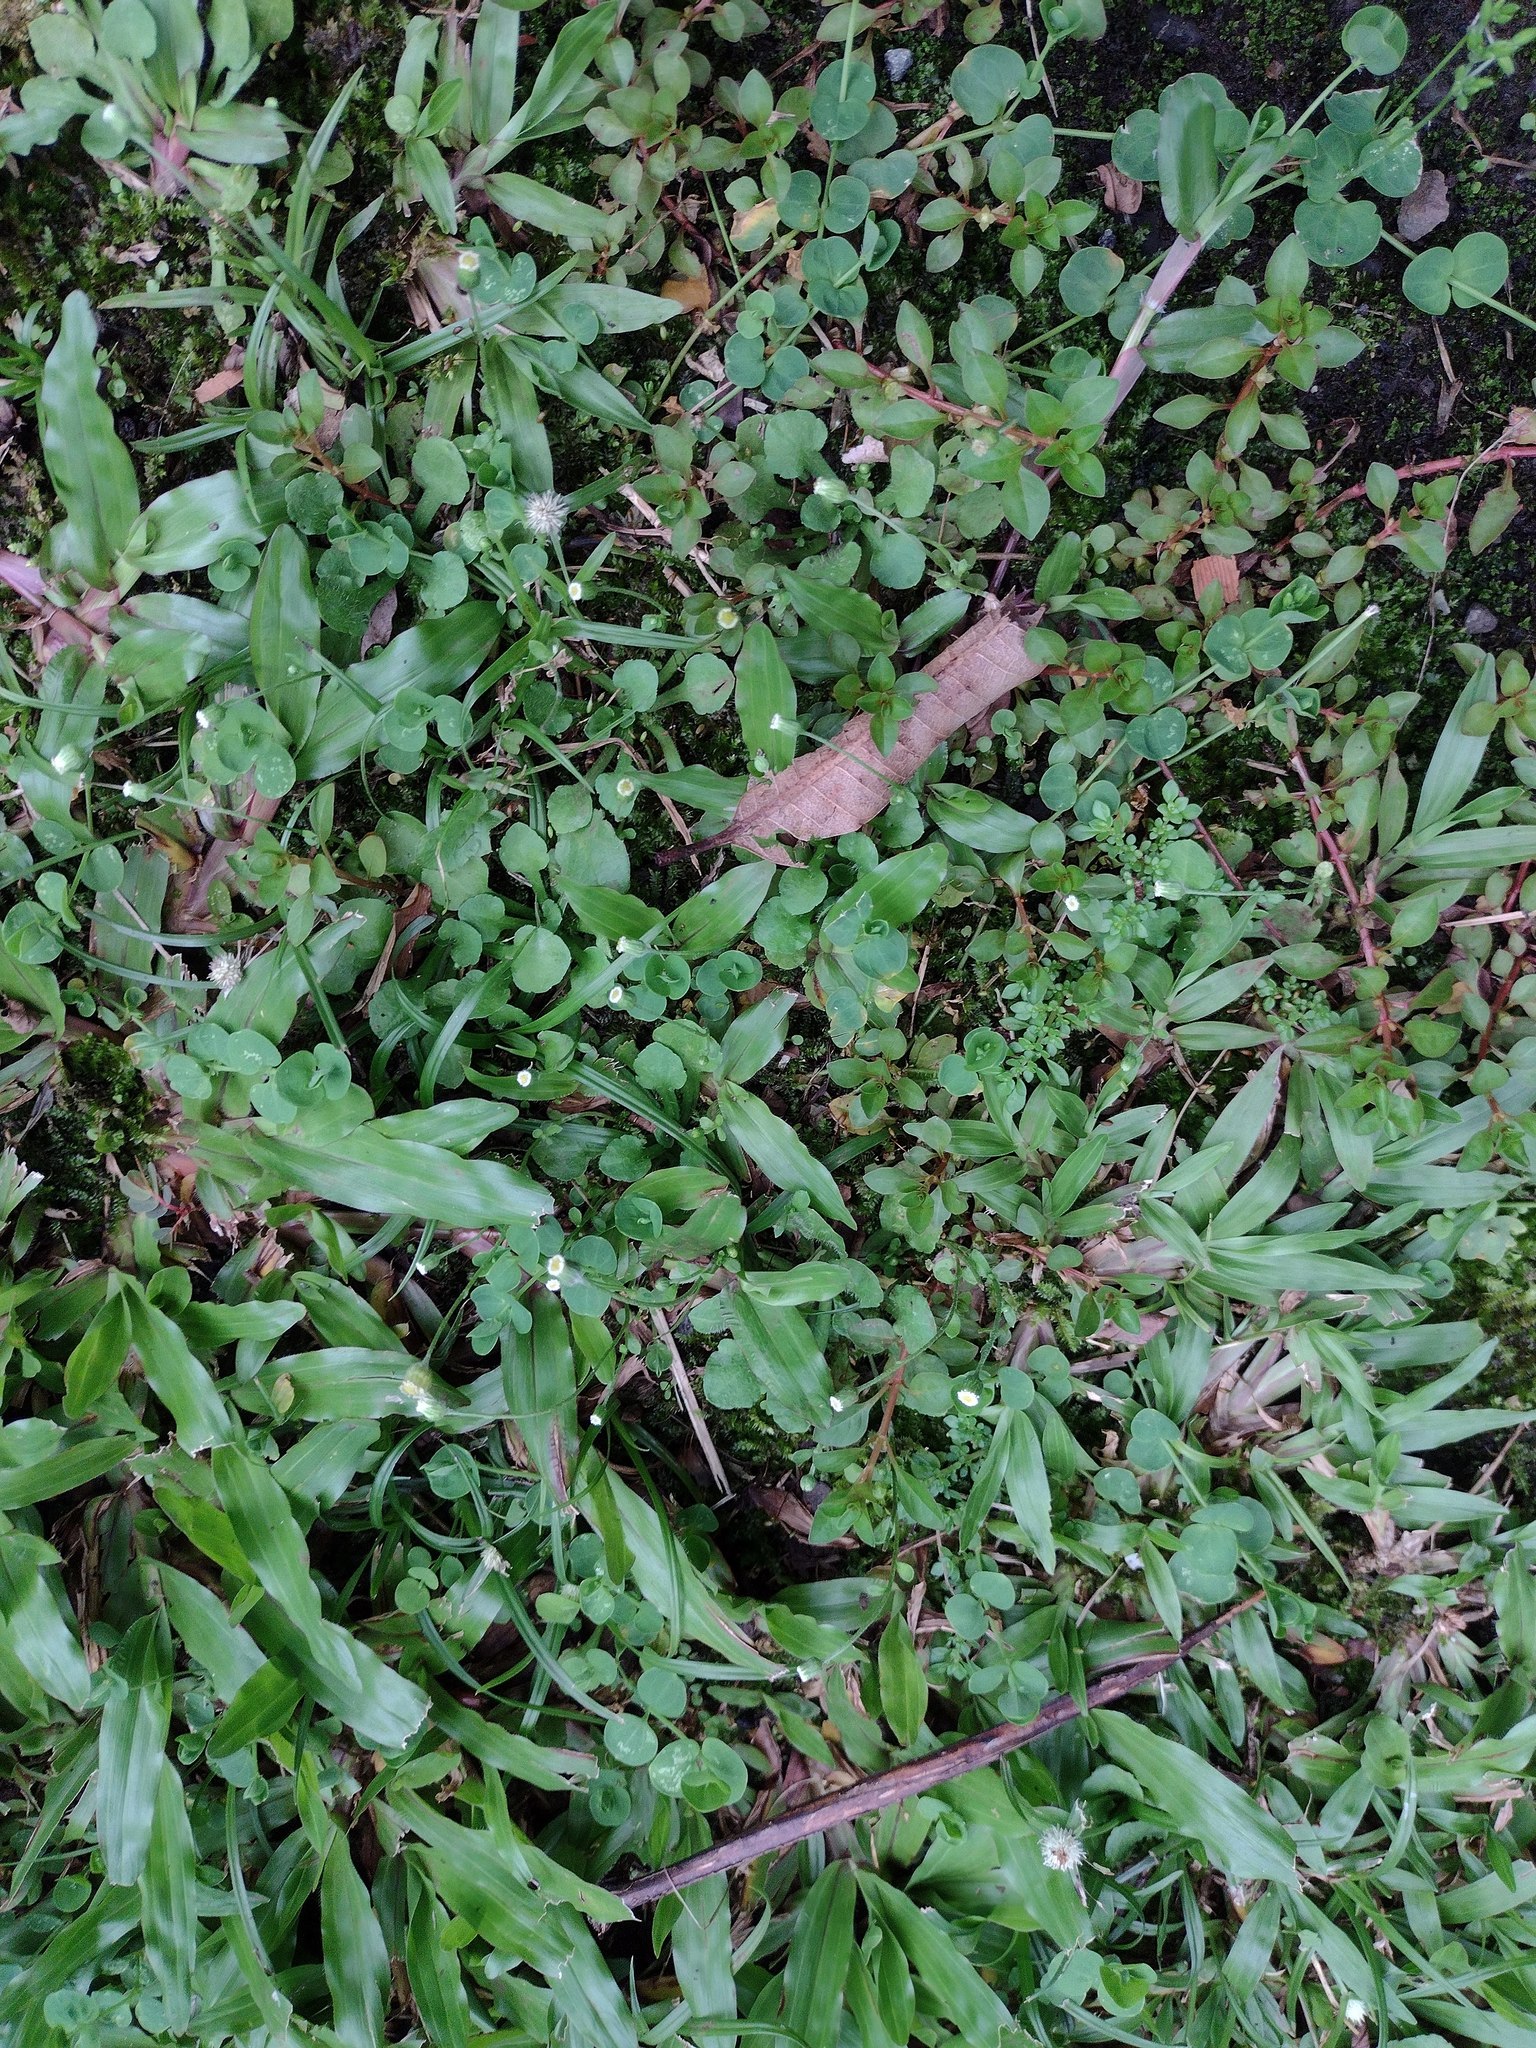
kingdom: Plantae
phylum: Tracheophyta
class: Magnoliopsida
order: Asterales
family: Asteraceae
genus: Erigeron
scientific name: Erigeron bellioides
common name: Bellorita
